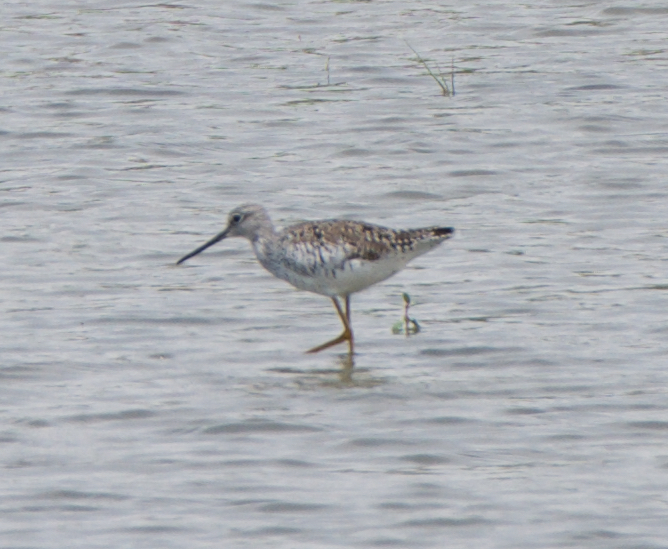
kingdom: Animalia
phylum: Chordata
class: Aves
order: Charadriiformes
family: Scolopacidae
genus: Tringa
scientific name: Tringa melanoleuca
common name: Greater yellowlegs
